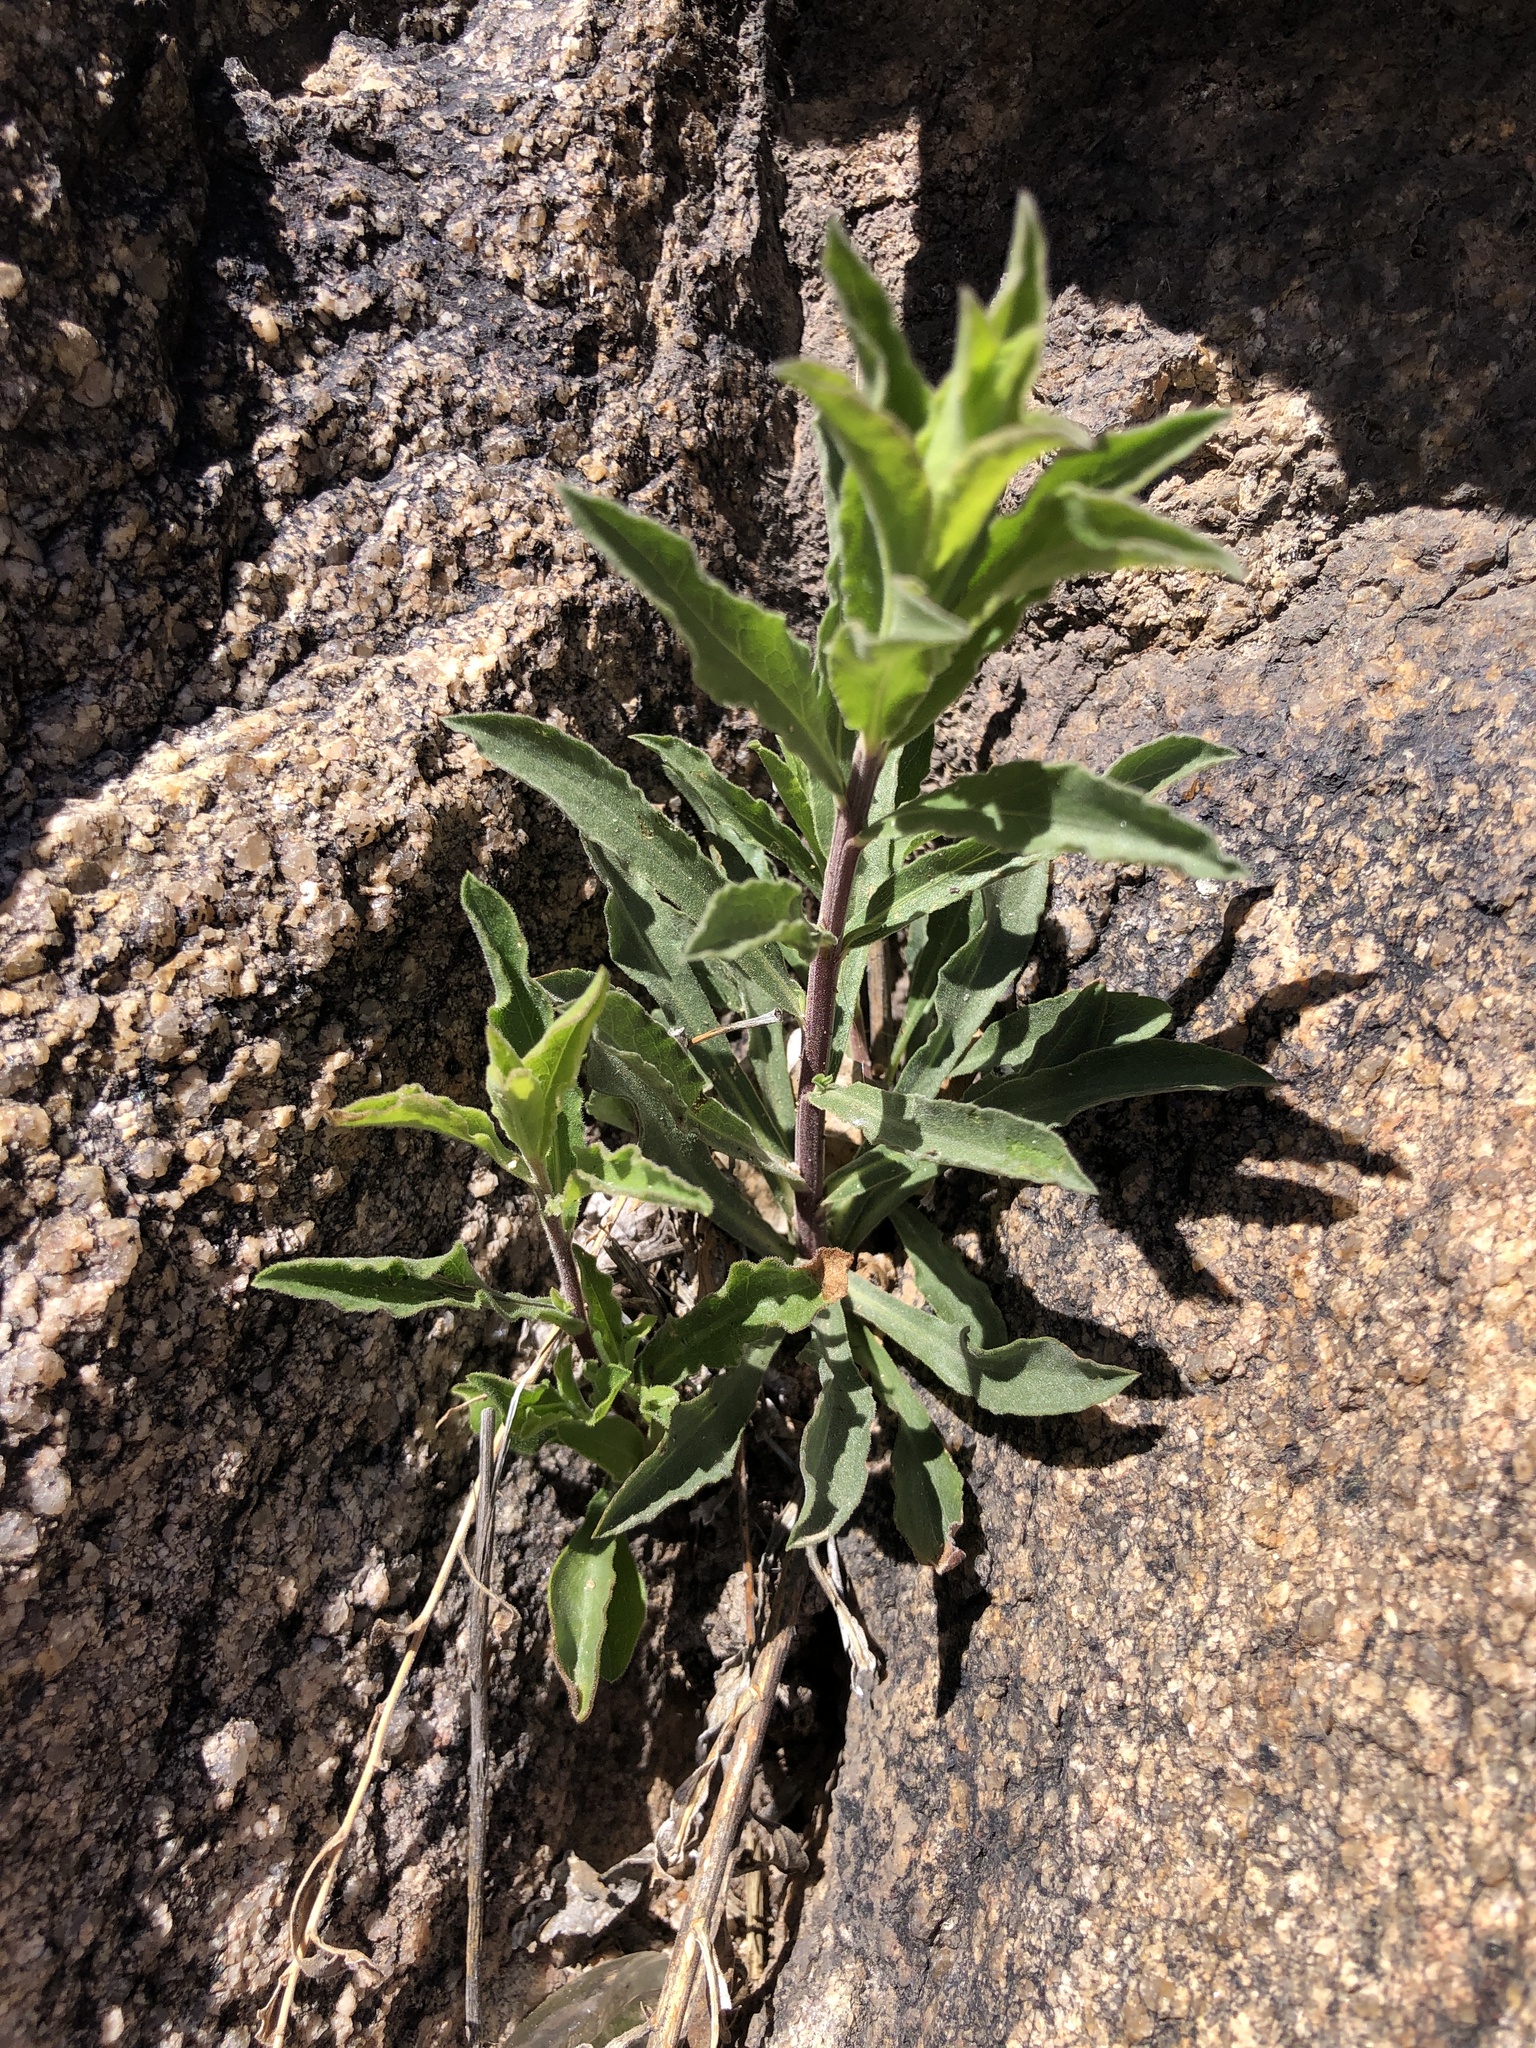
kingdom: Animalia
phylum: Chordata
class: Squamata
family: Phrynosomatidae
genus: Urosaurus
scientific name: Urosaurus ornatus
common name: Ornate tree lizard
